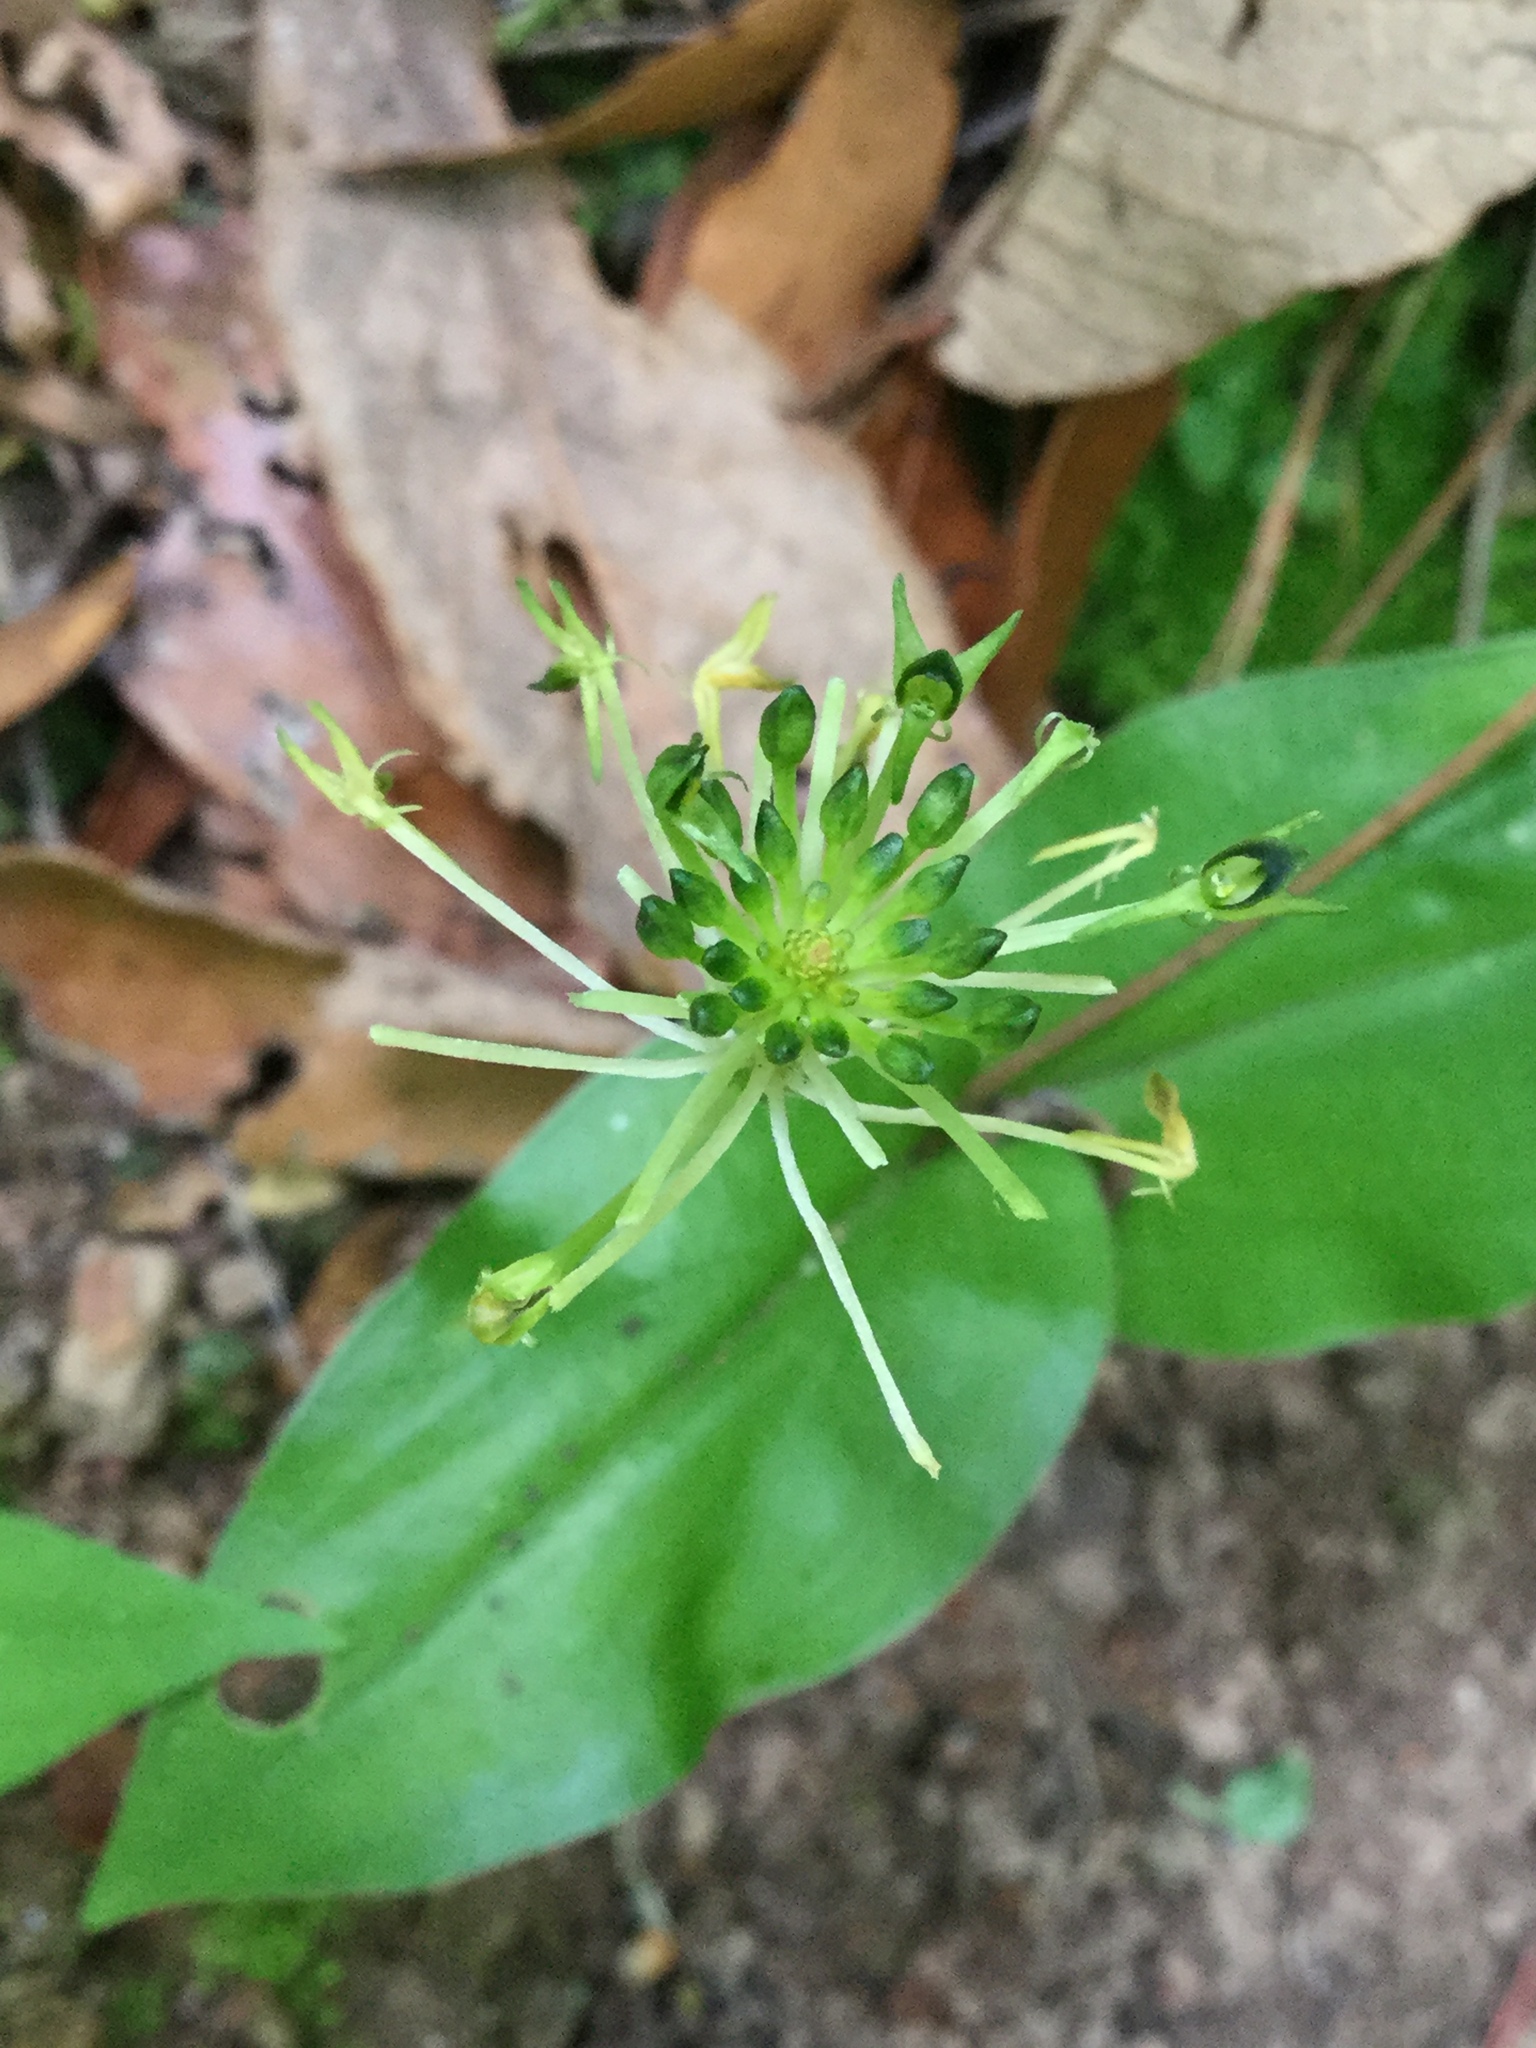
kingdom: Plantae
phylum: Tracheophyta
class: Liliopsida
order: Asparagales
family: Orchidaceae
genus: Malaxis
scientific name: Malaxis brachyrrhynchos
